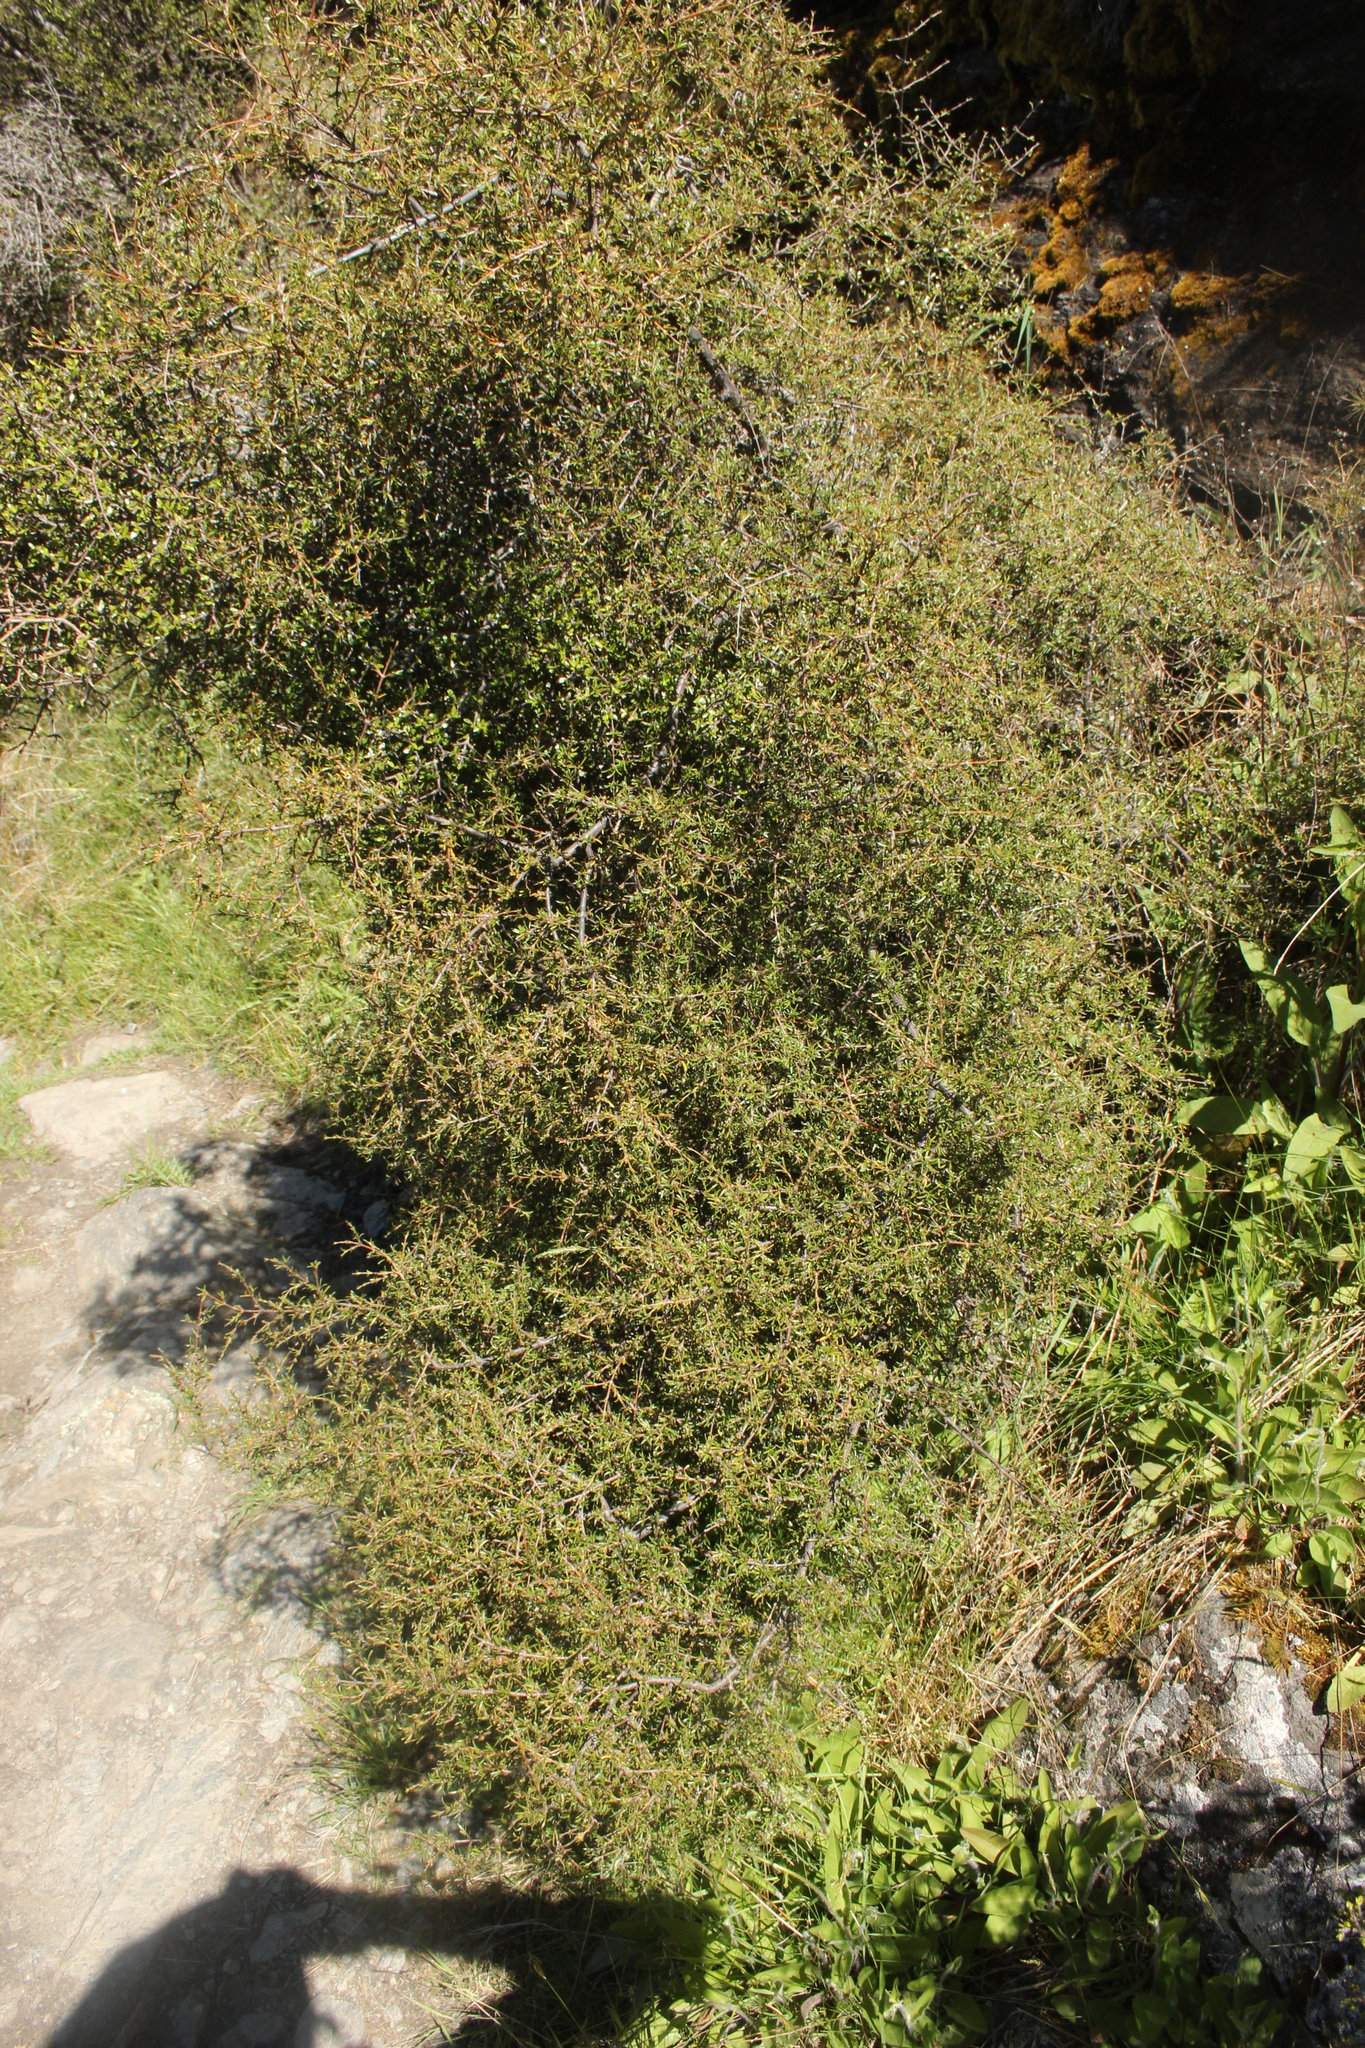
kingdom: Plantae
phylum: Tracheophyta
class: Magnoliopsida
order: Gentianales
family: Rubiaceae
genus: Coprosma
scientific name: Coprosma rugosa
